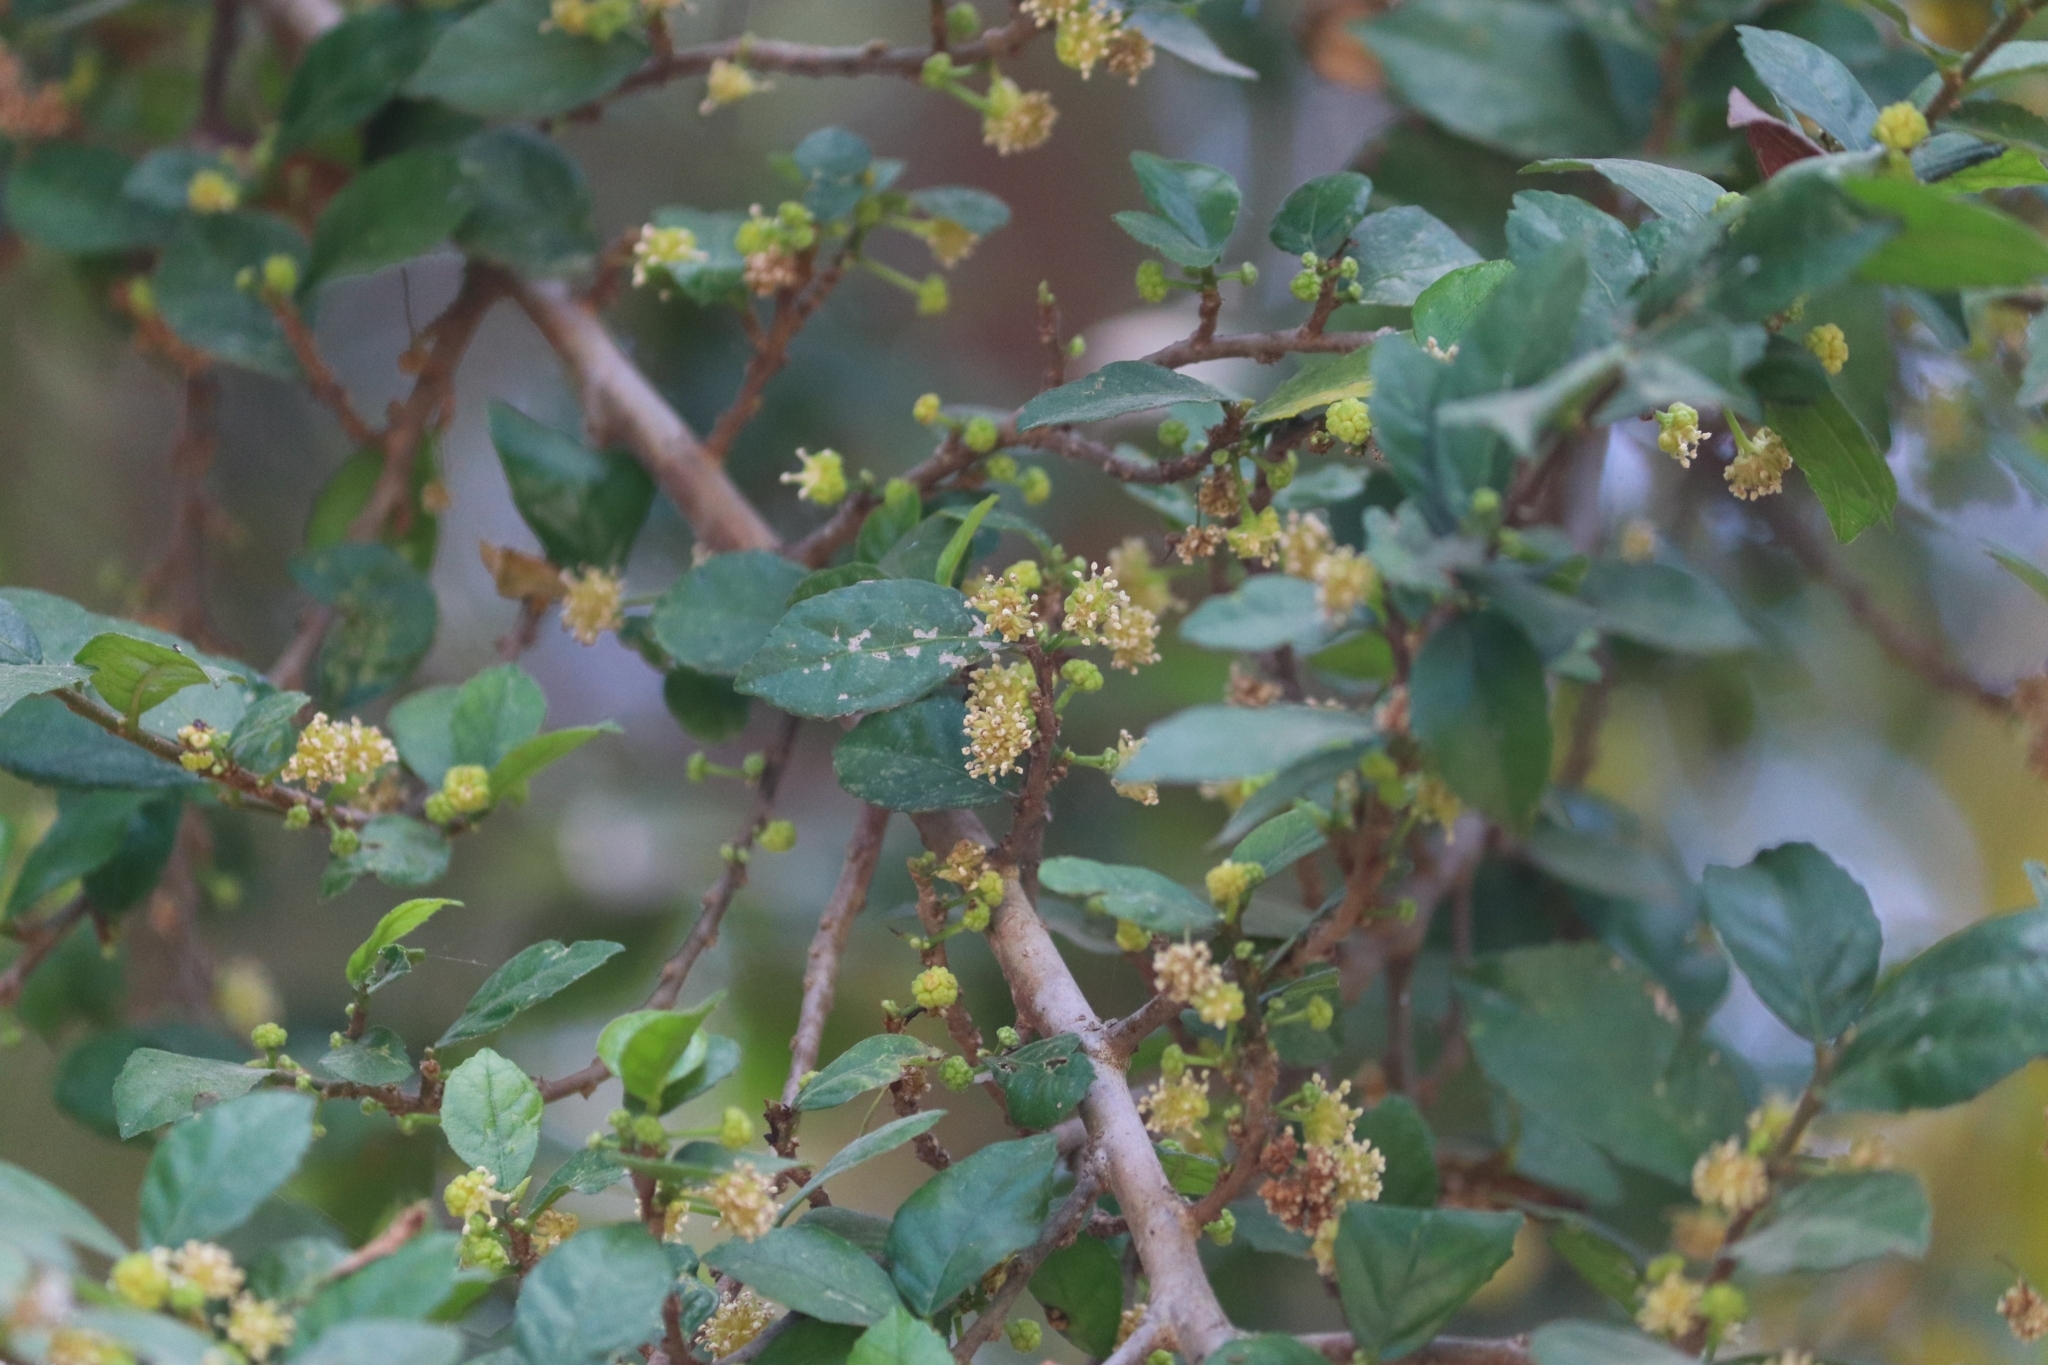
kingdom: Plantae
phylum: Tracheophyta
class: Magnoliopsida
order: Rosales
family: Moraceae
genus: Streblus
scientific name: Streblus asper
